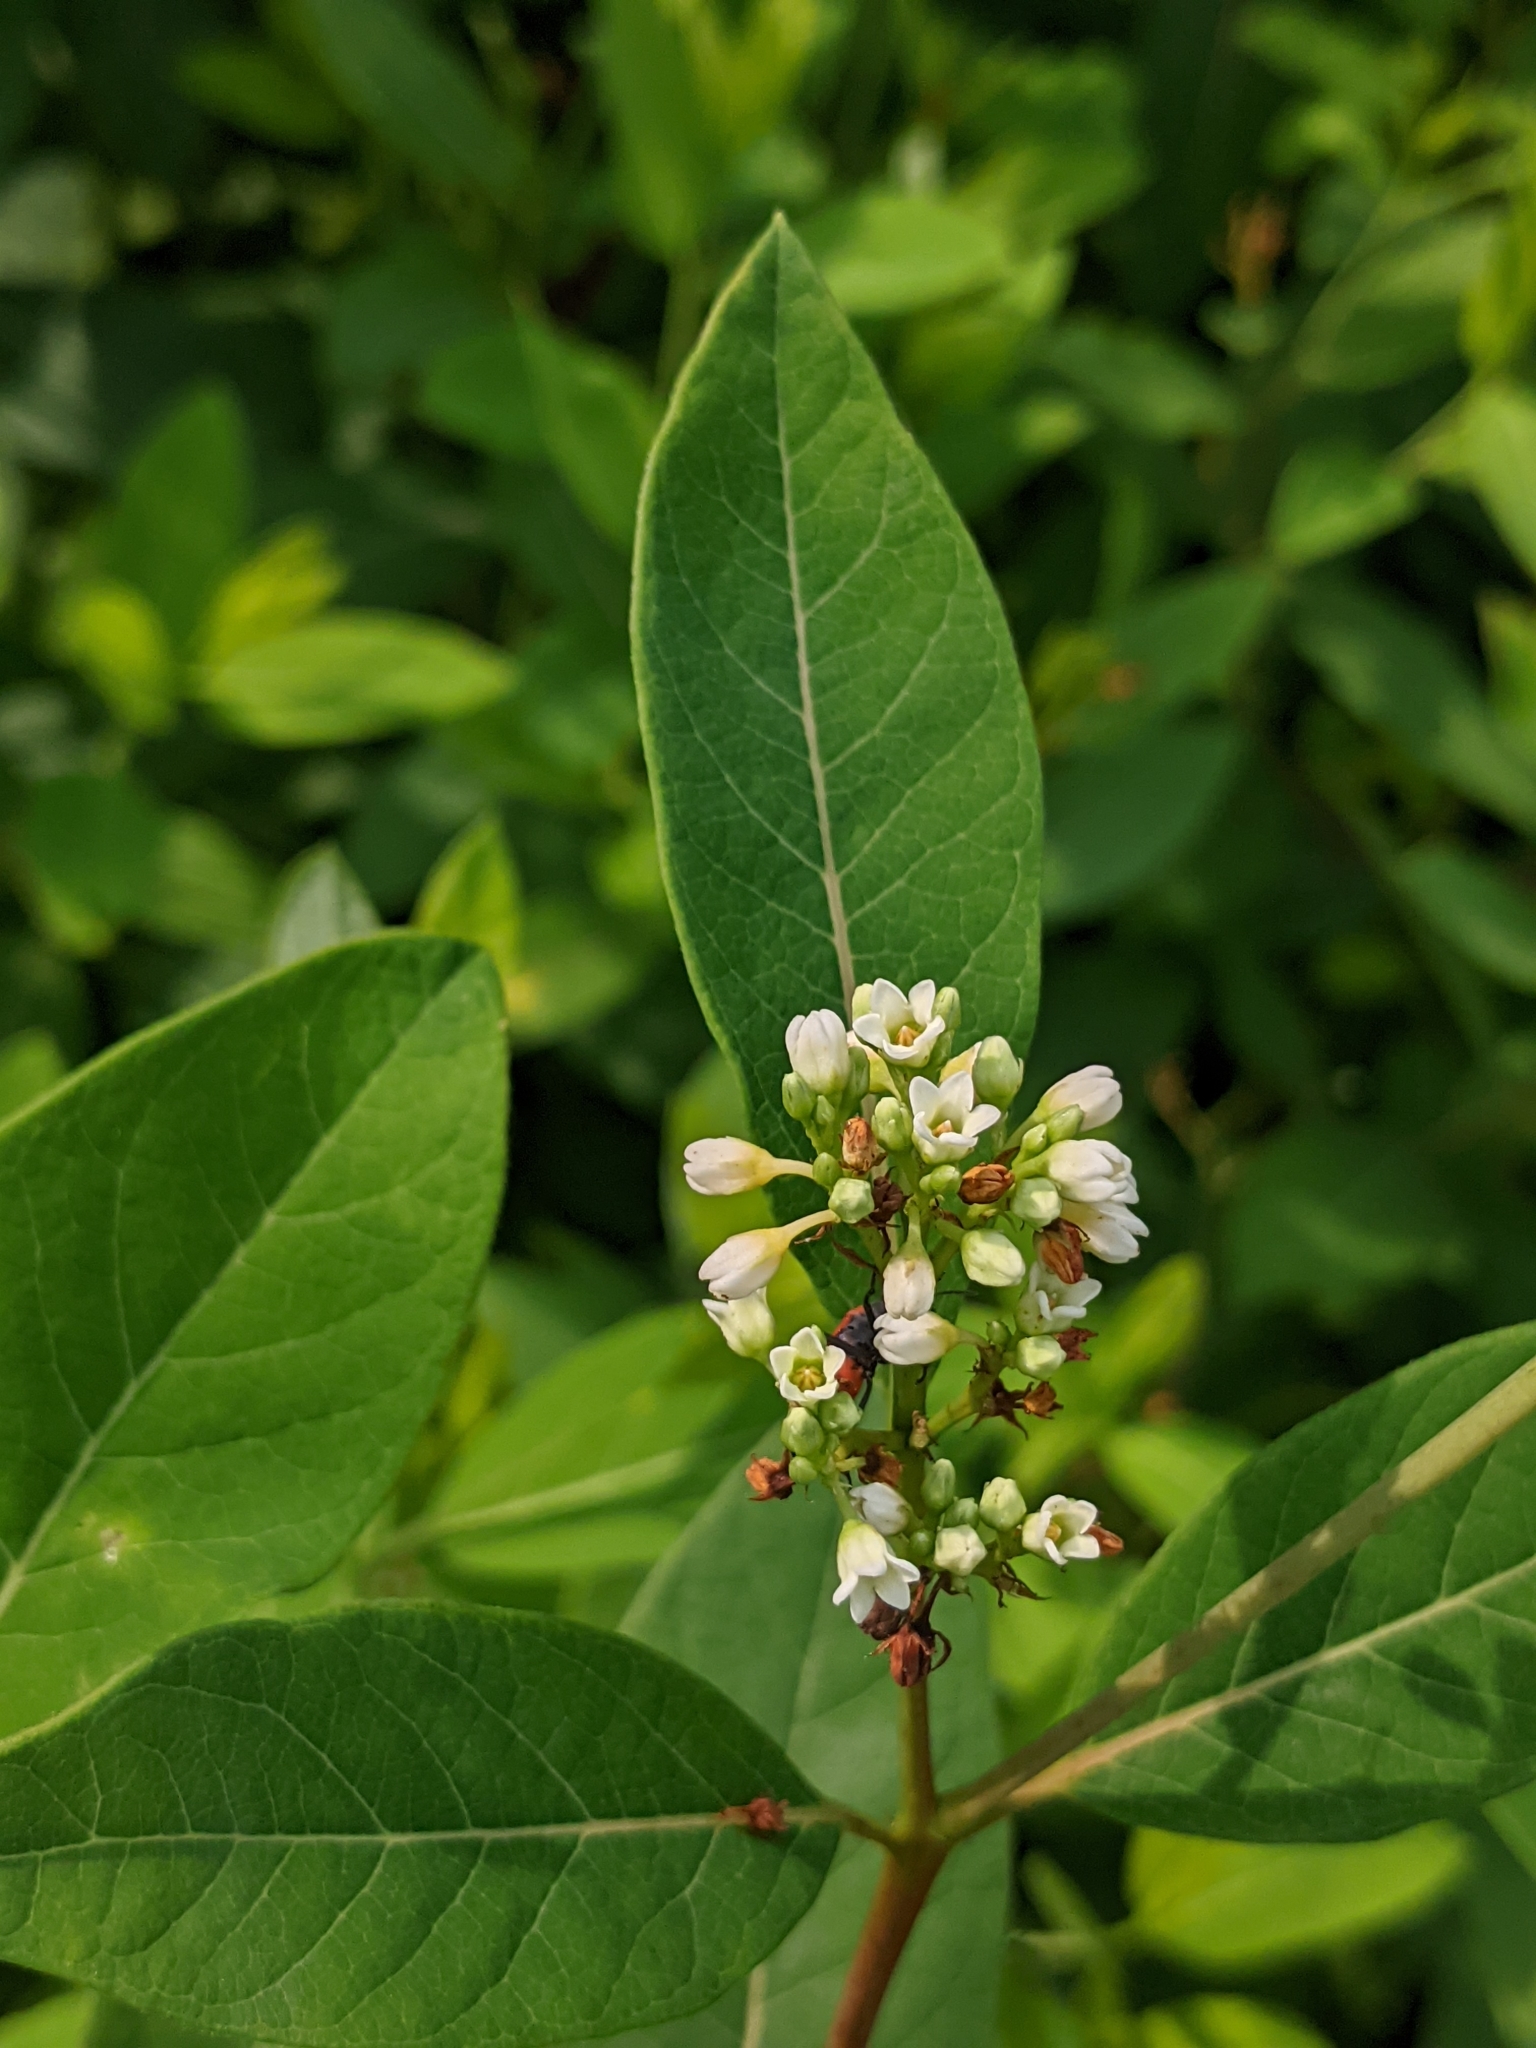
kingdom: Plantae
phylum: Tracheophyta
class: Magnoliopsida
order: Gentianales
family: Apocynaceae
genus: Apocynum
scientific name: Apocynum cannabinum
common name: Hemp dogbane
